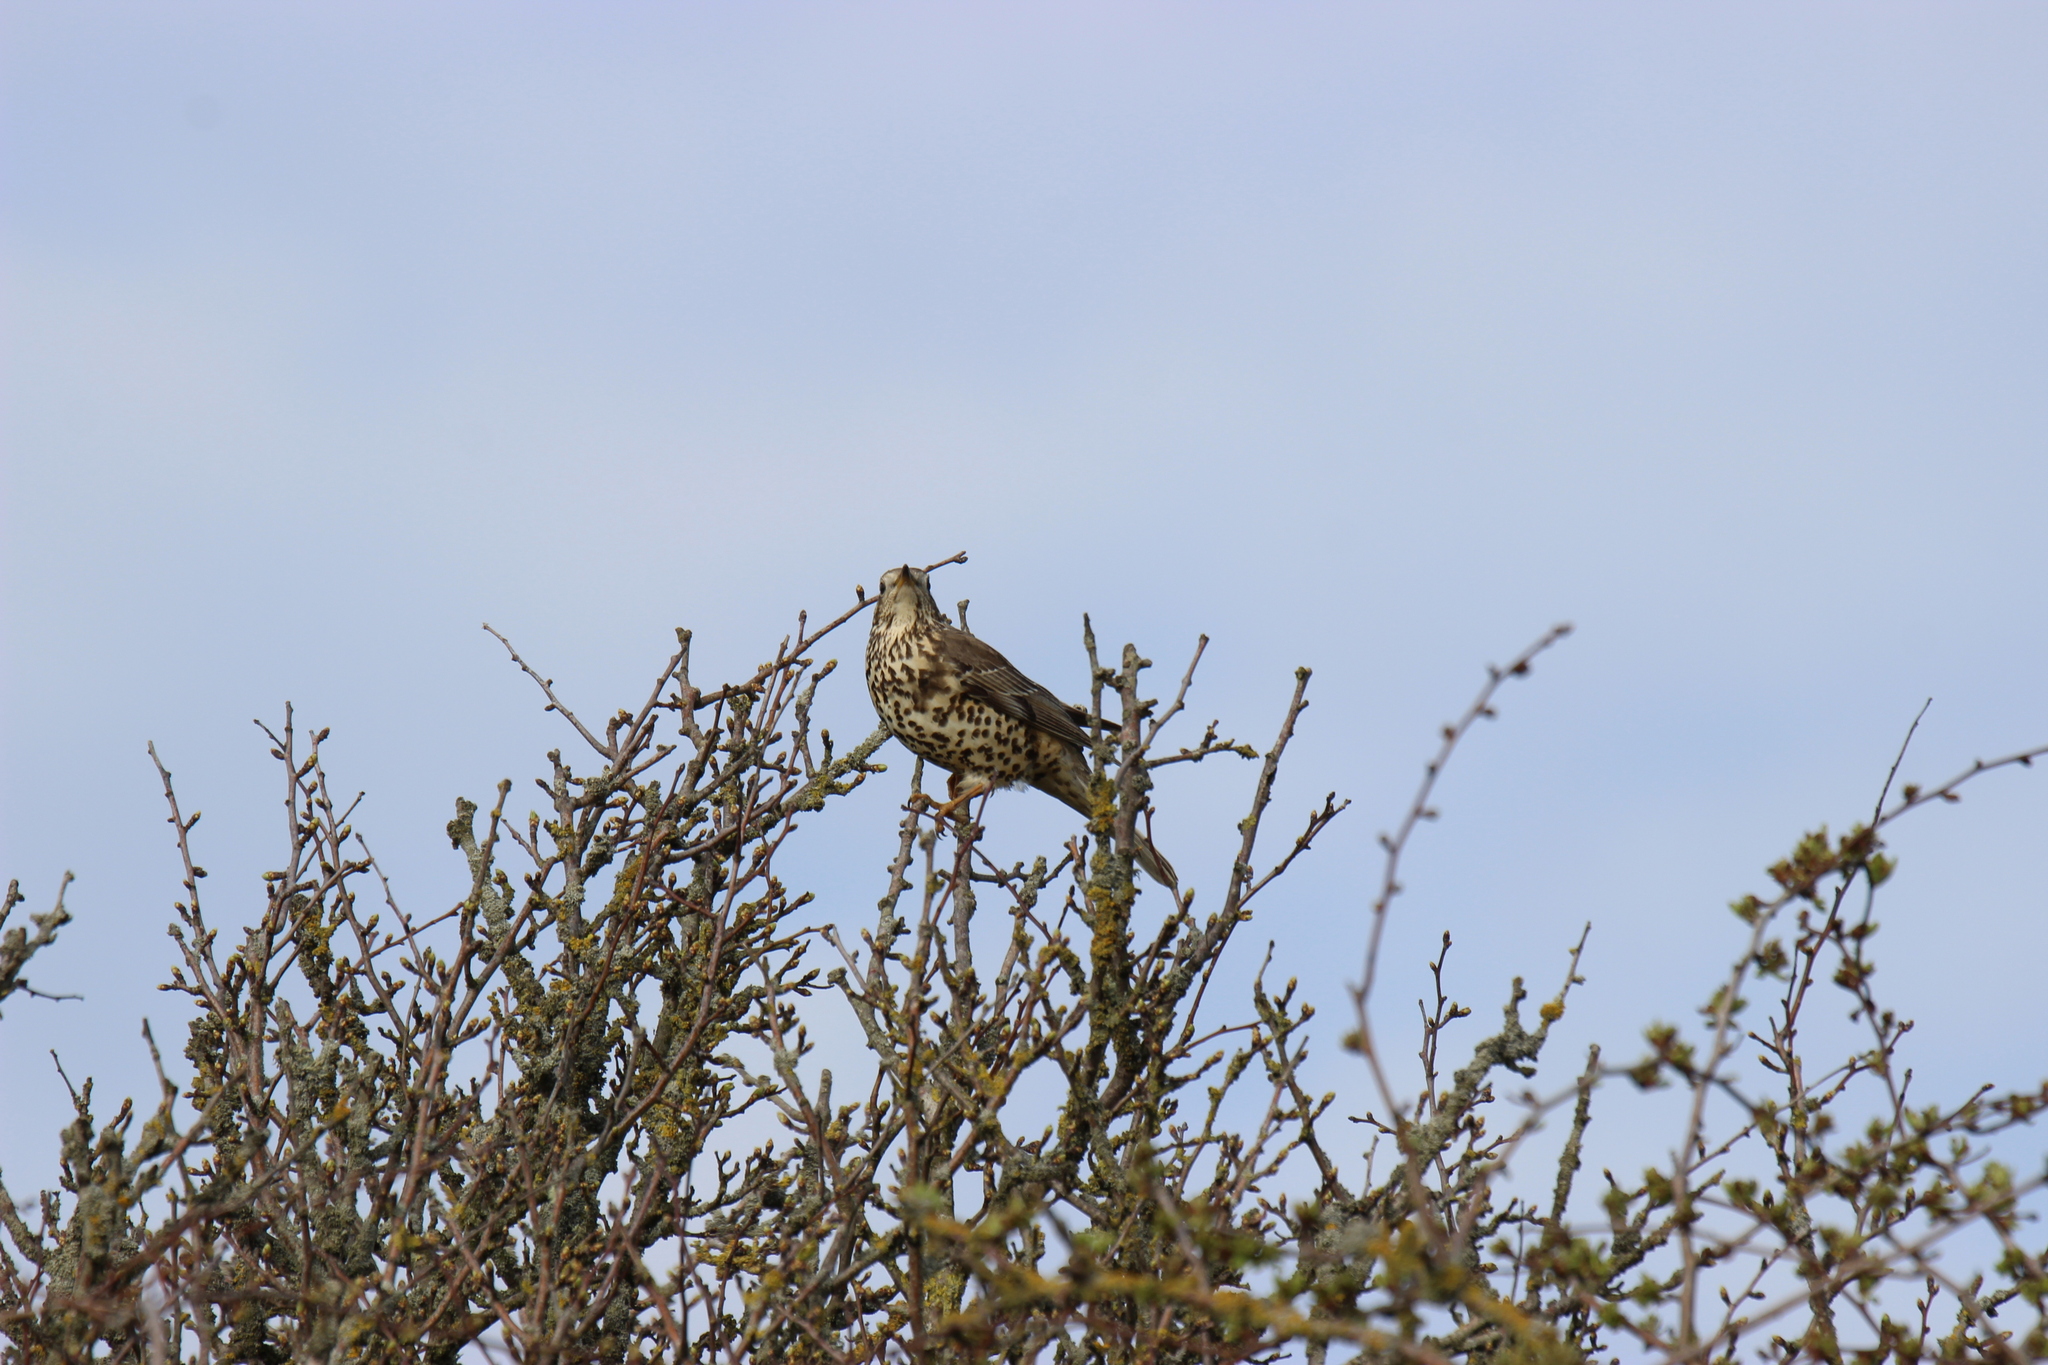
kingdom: Animalia
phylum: Chordata
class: Aves
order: Passeriformes
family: Turdidae
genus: Turdus
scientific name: Turdus viscivorus
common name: Mistle thrush
